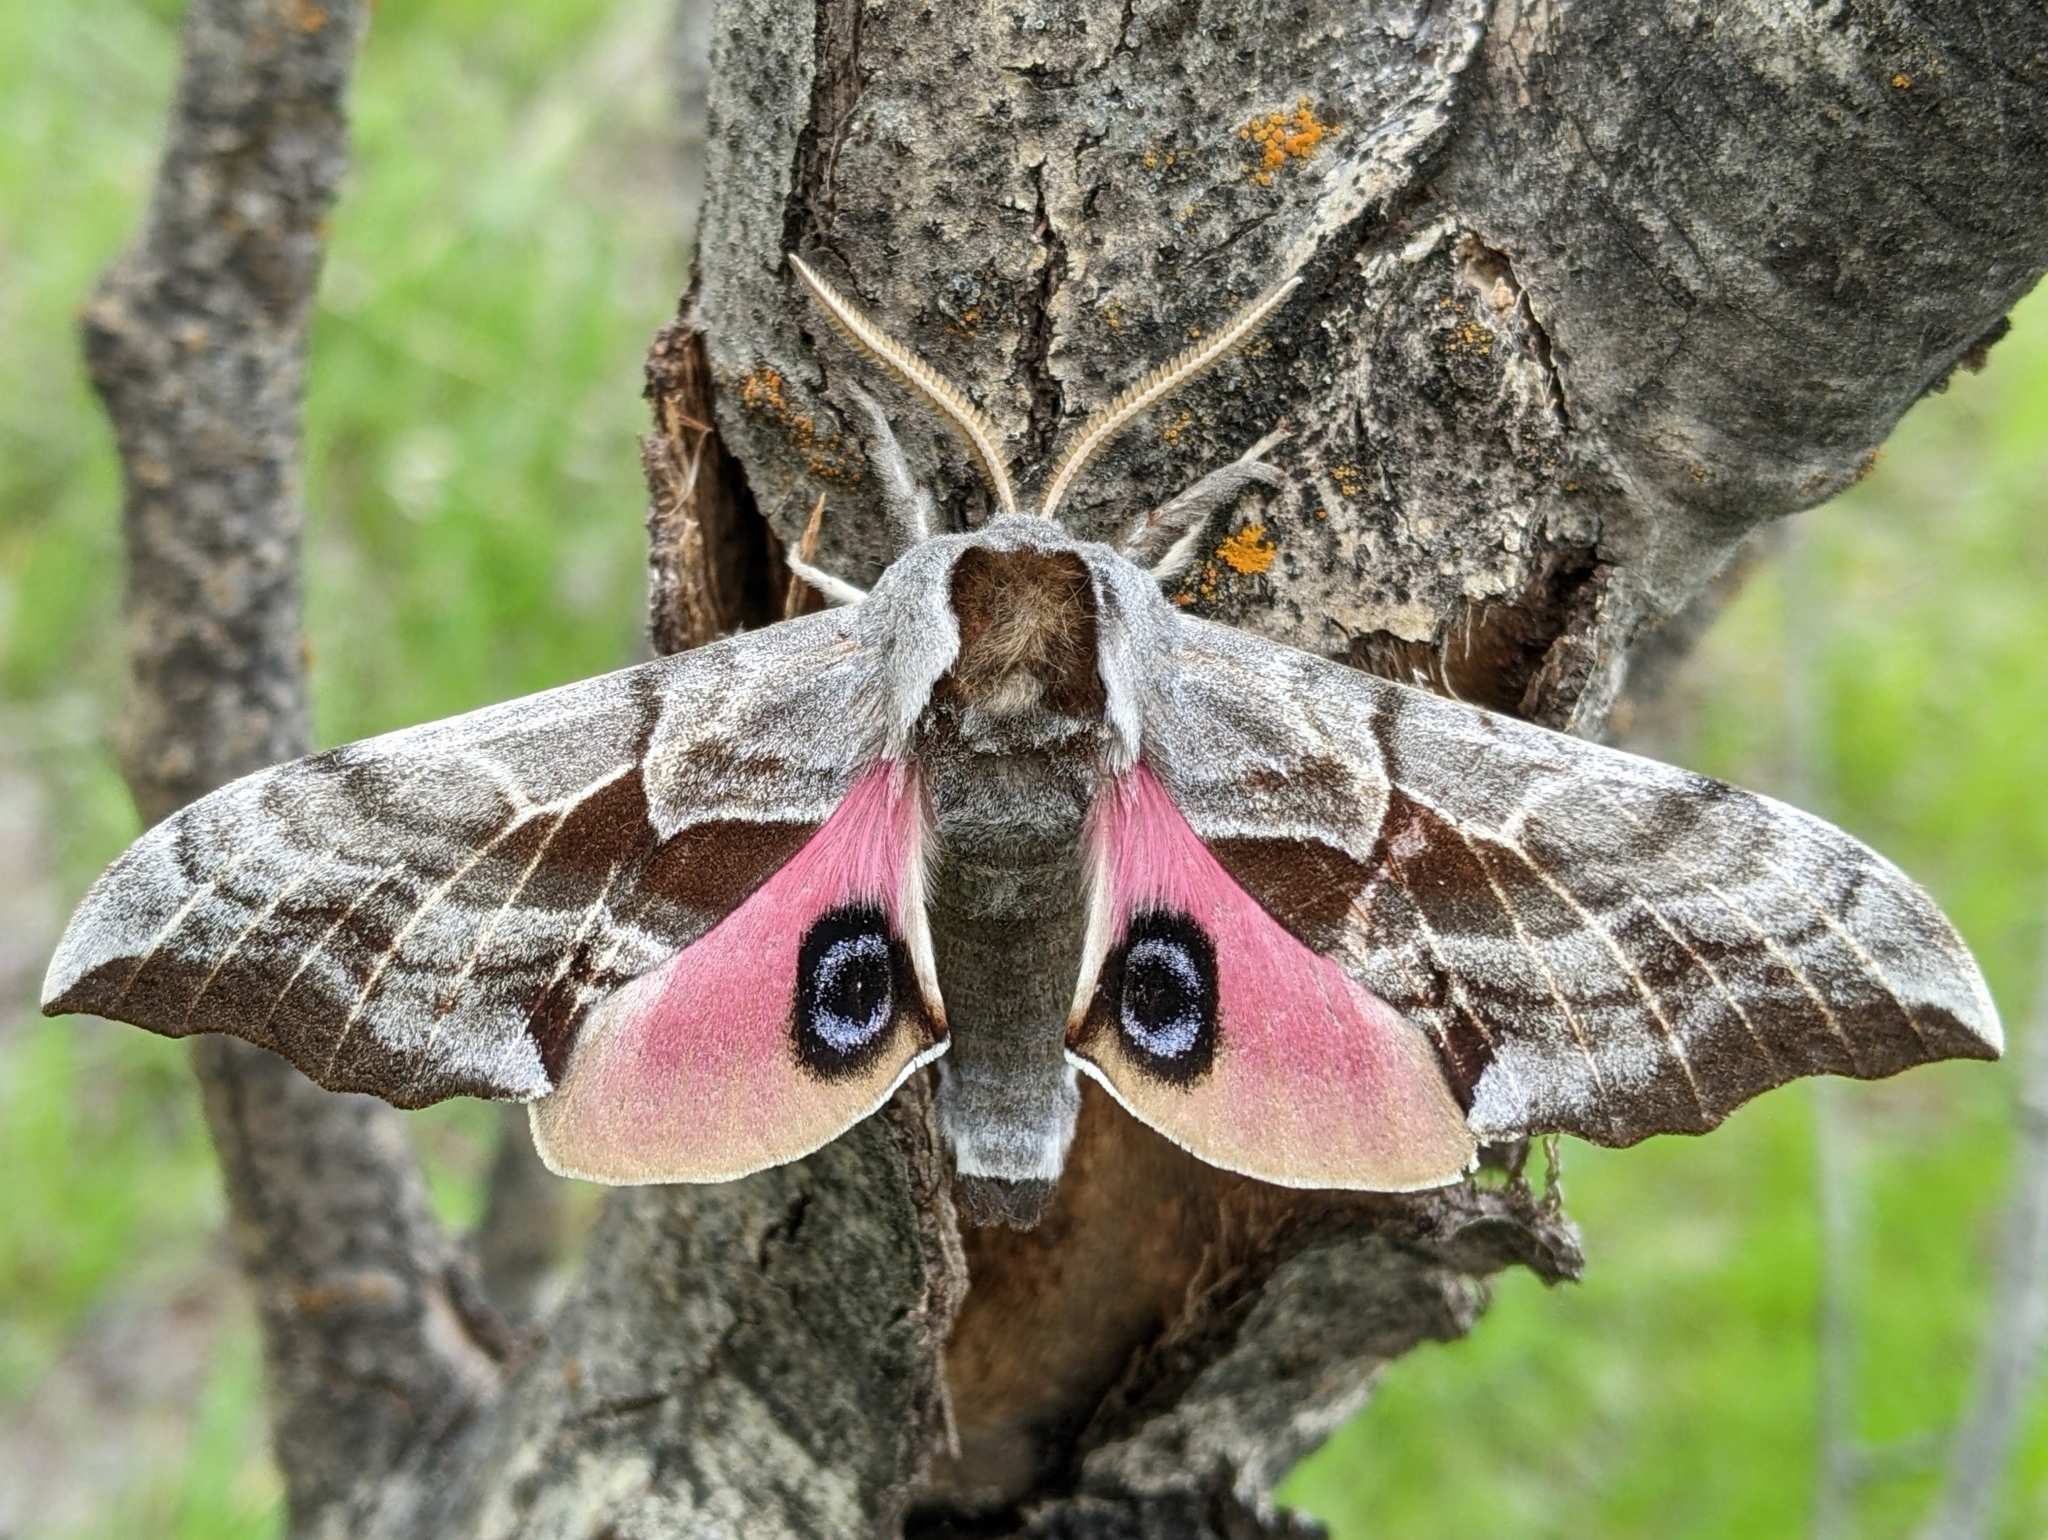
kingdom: Animalia
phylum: Arthropoda
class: Insecta
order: Lepidoptera
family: Sphingidae
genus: Smerinthus
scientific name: Smerinthus cerisyi
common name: Cerisy's sphinx moth
